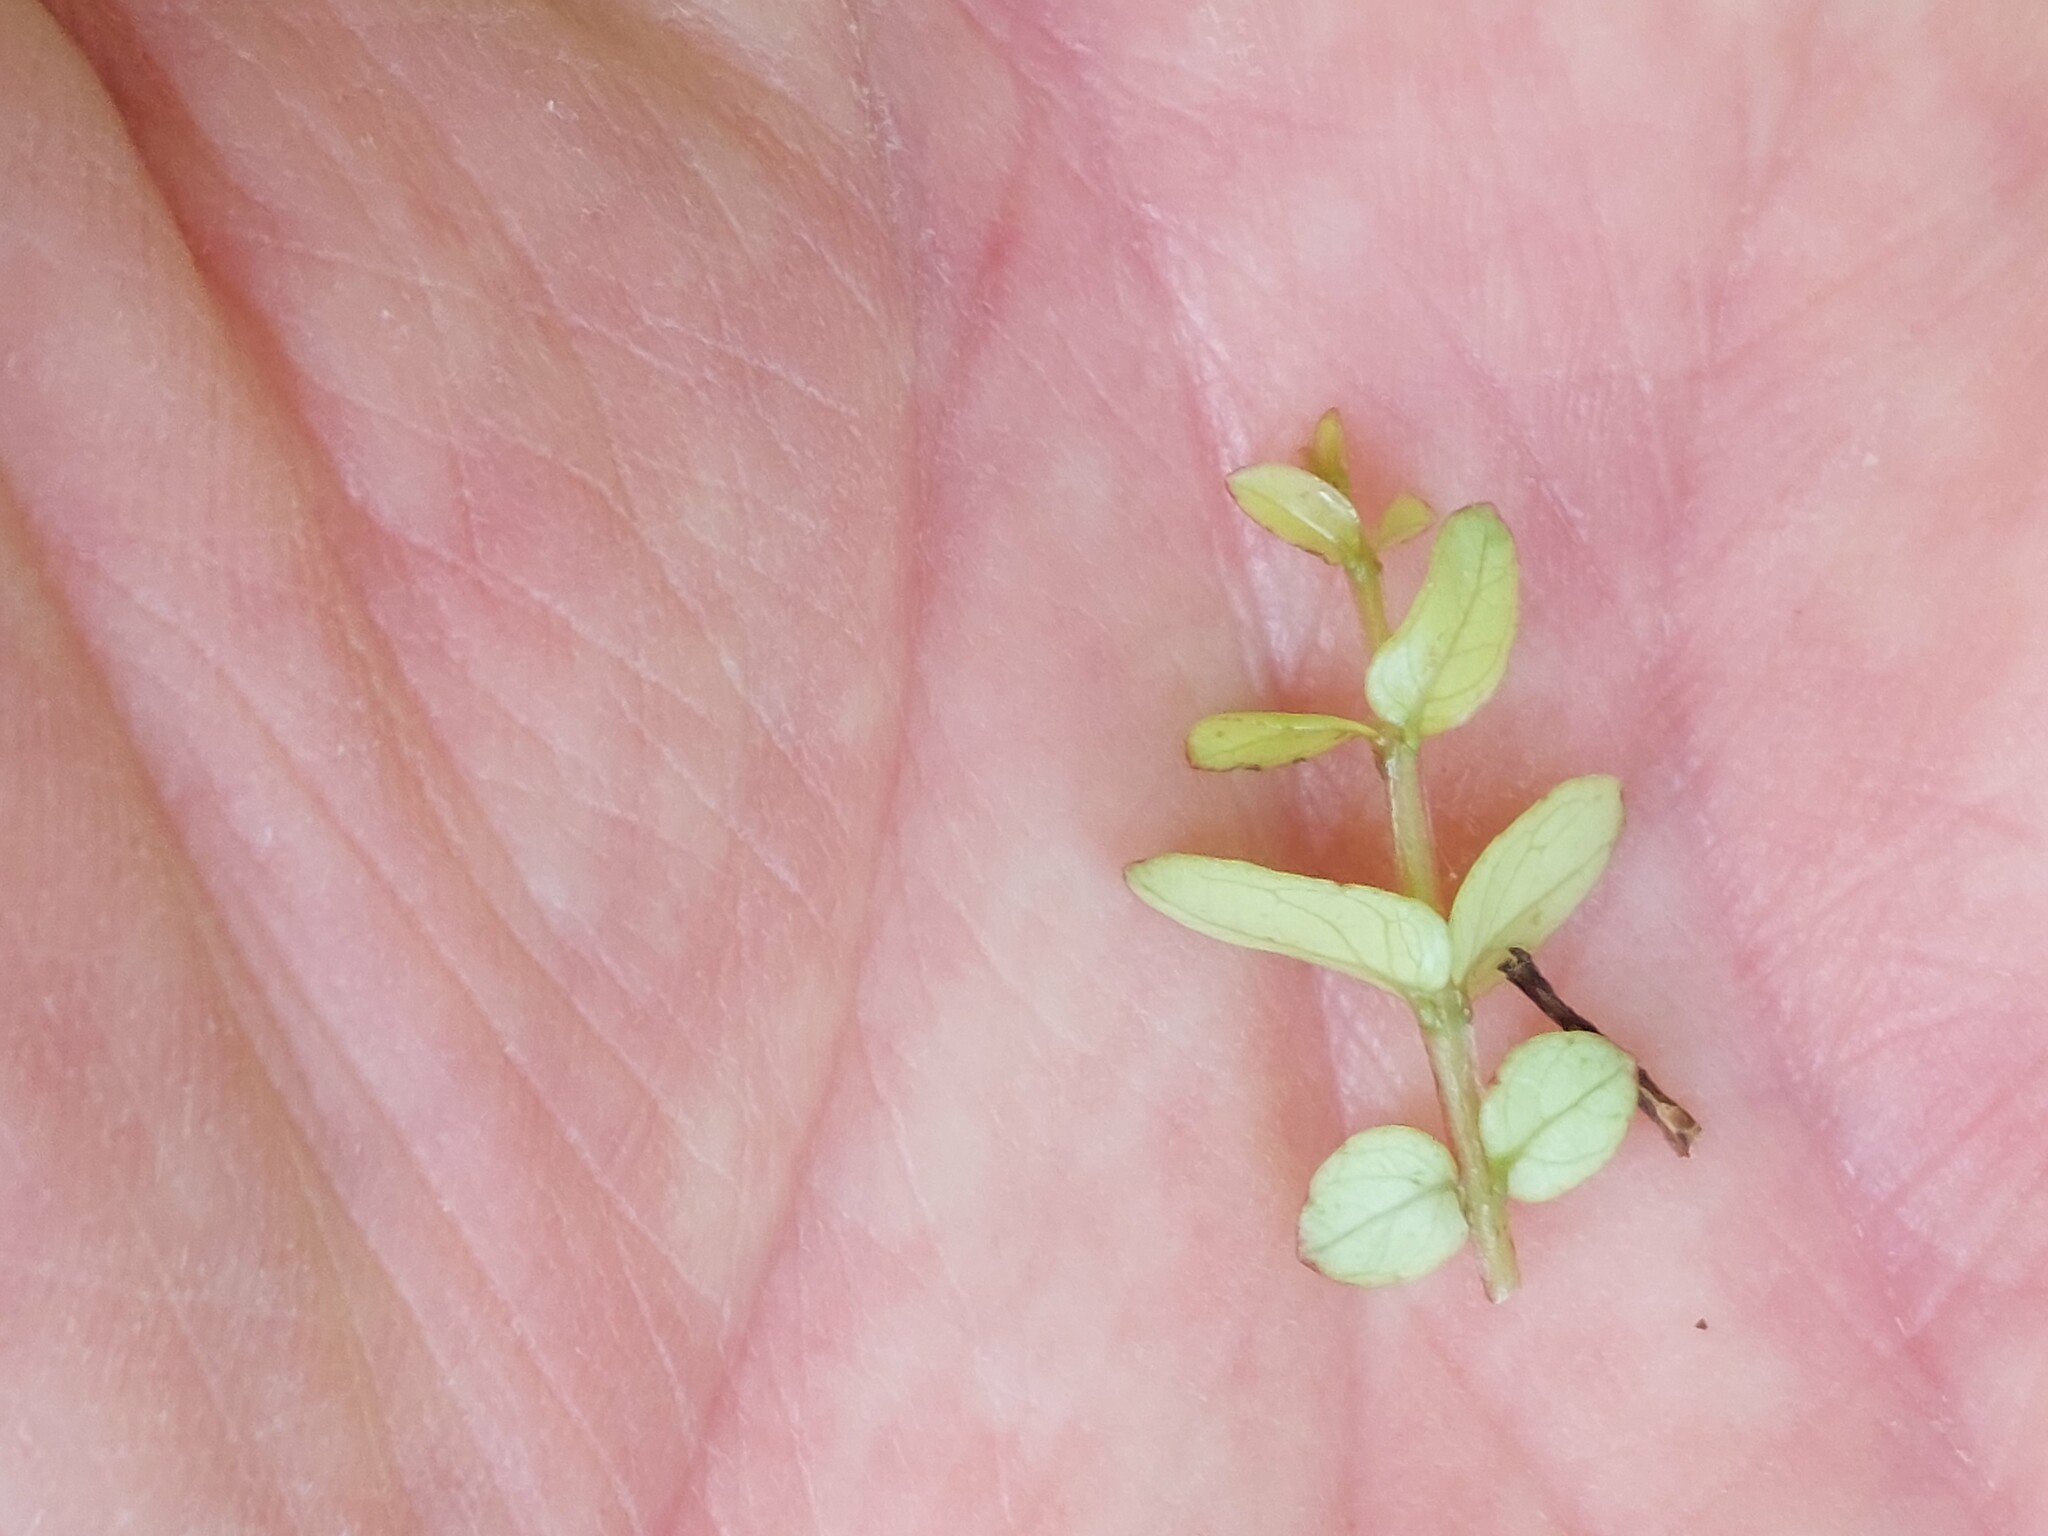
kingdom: Plantae
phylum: Tracheophyta
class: Magnoliopsida
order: Myrtales
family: Myrtaceae
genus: Metrosideros
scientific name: Metrosideros diffusa
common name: Small ratavine
